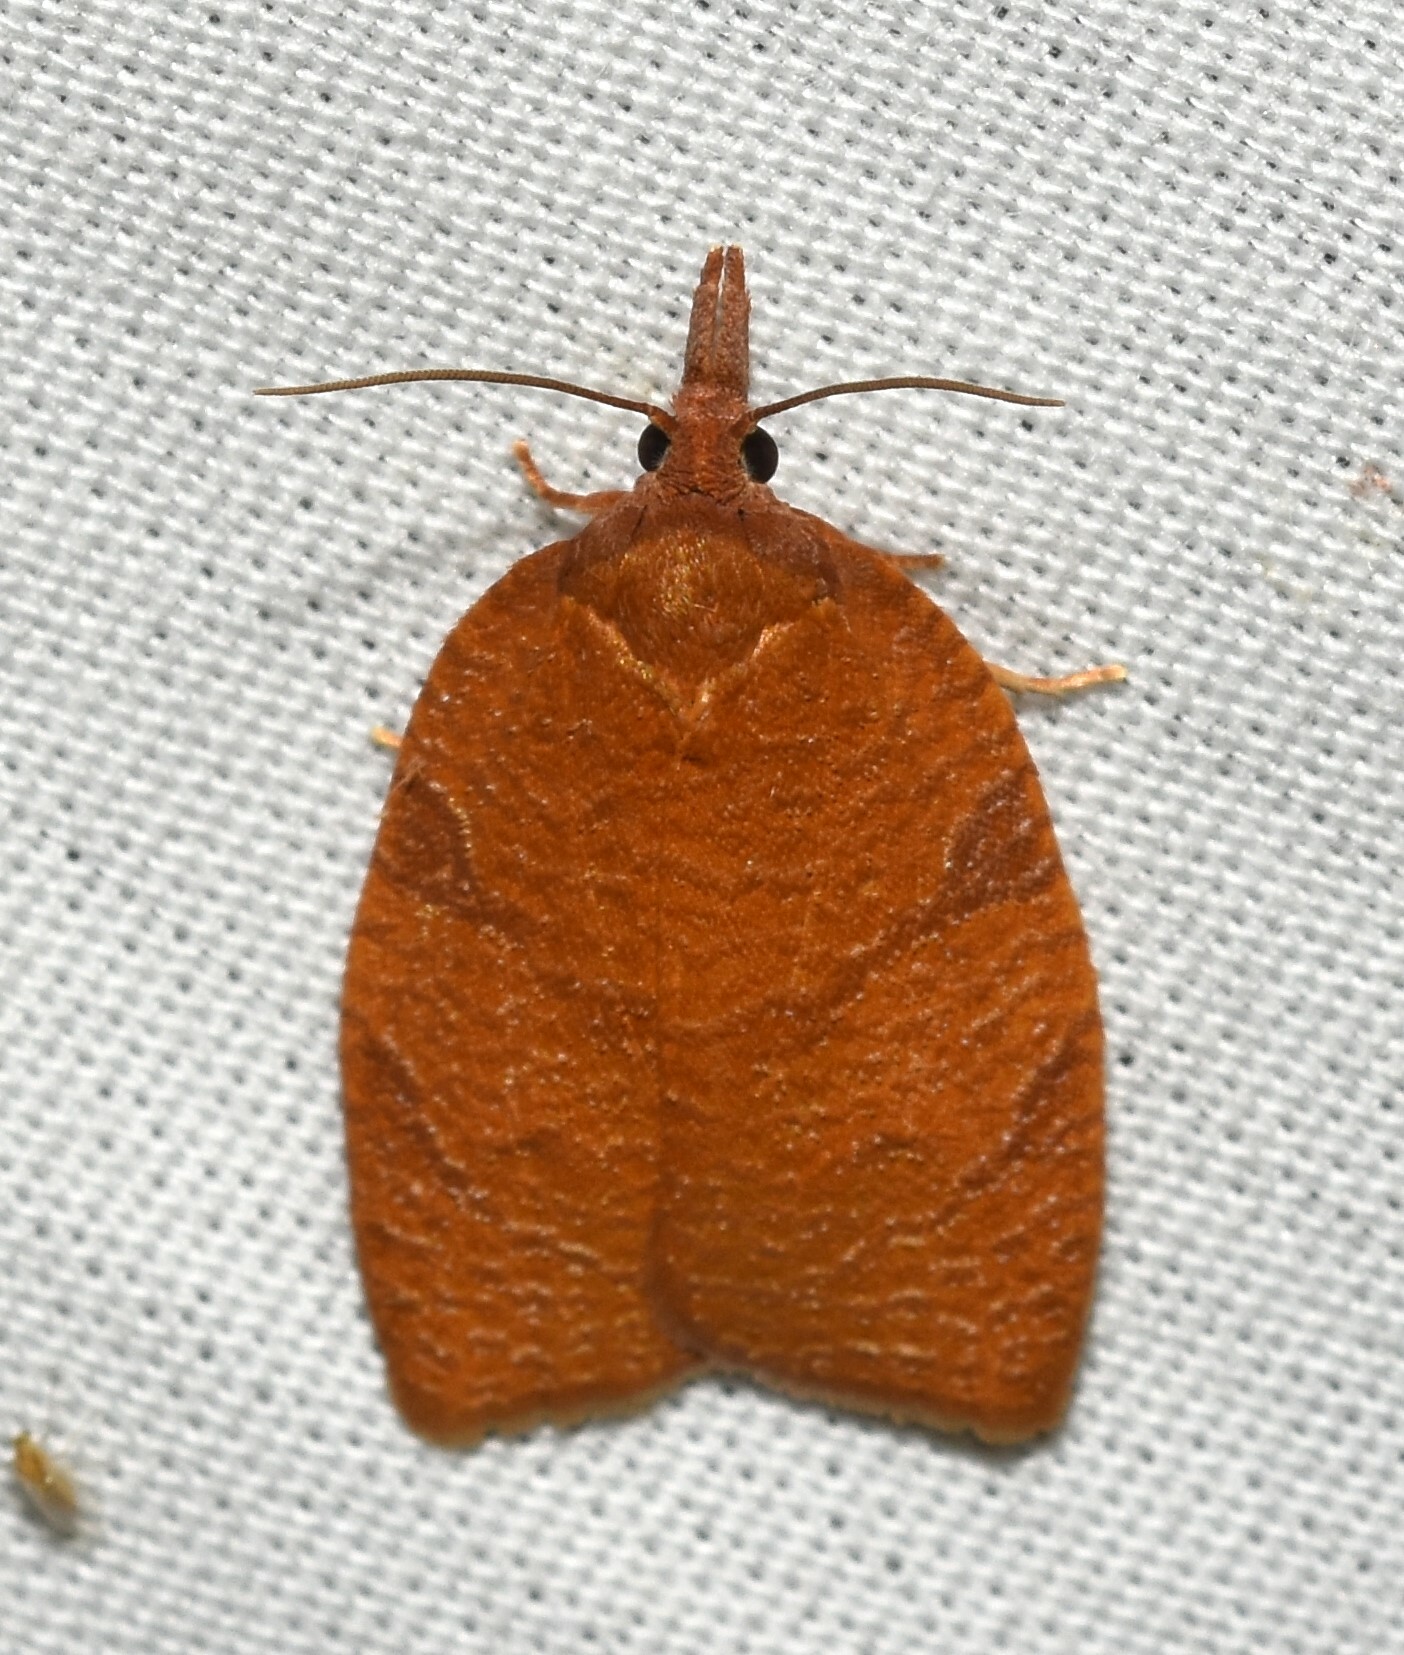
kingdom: Animalia
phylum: Arthropoda
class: Insecta
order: Lepidoptera
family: Tortricidae
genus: Cenopis
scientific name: Cenopis directana
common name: Chokecherry leafroller moth
